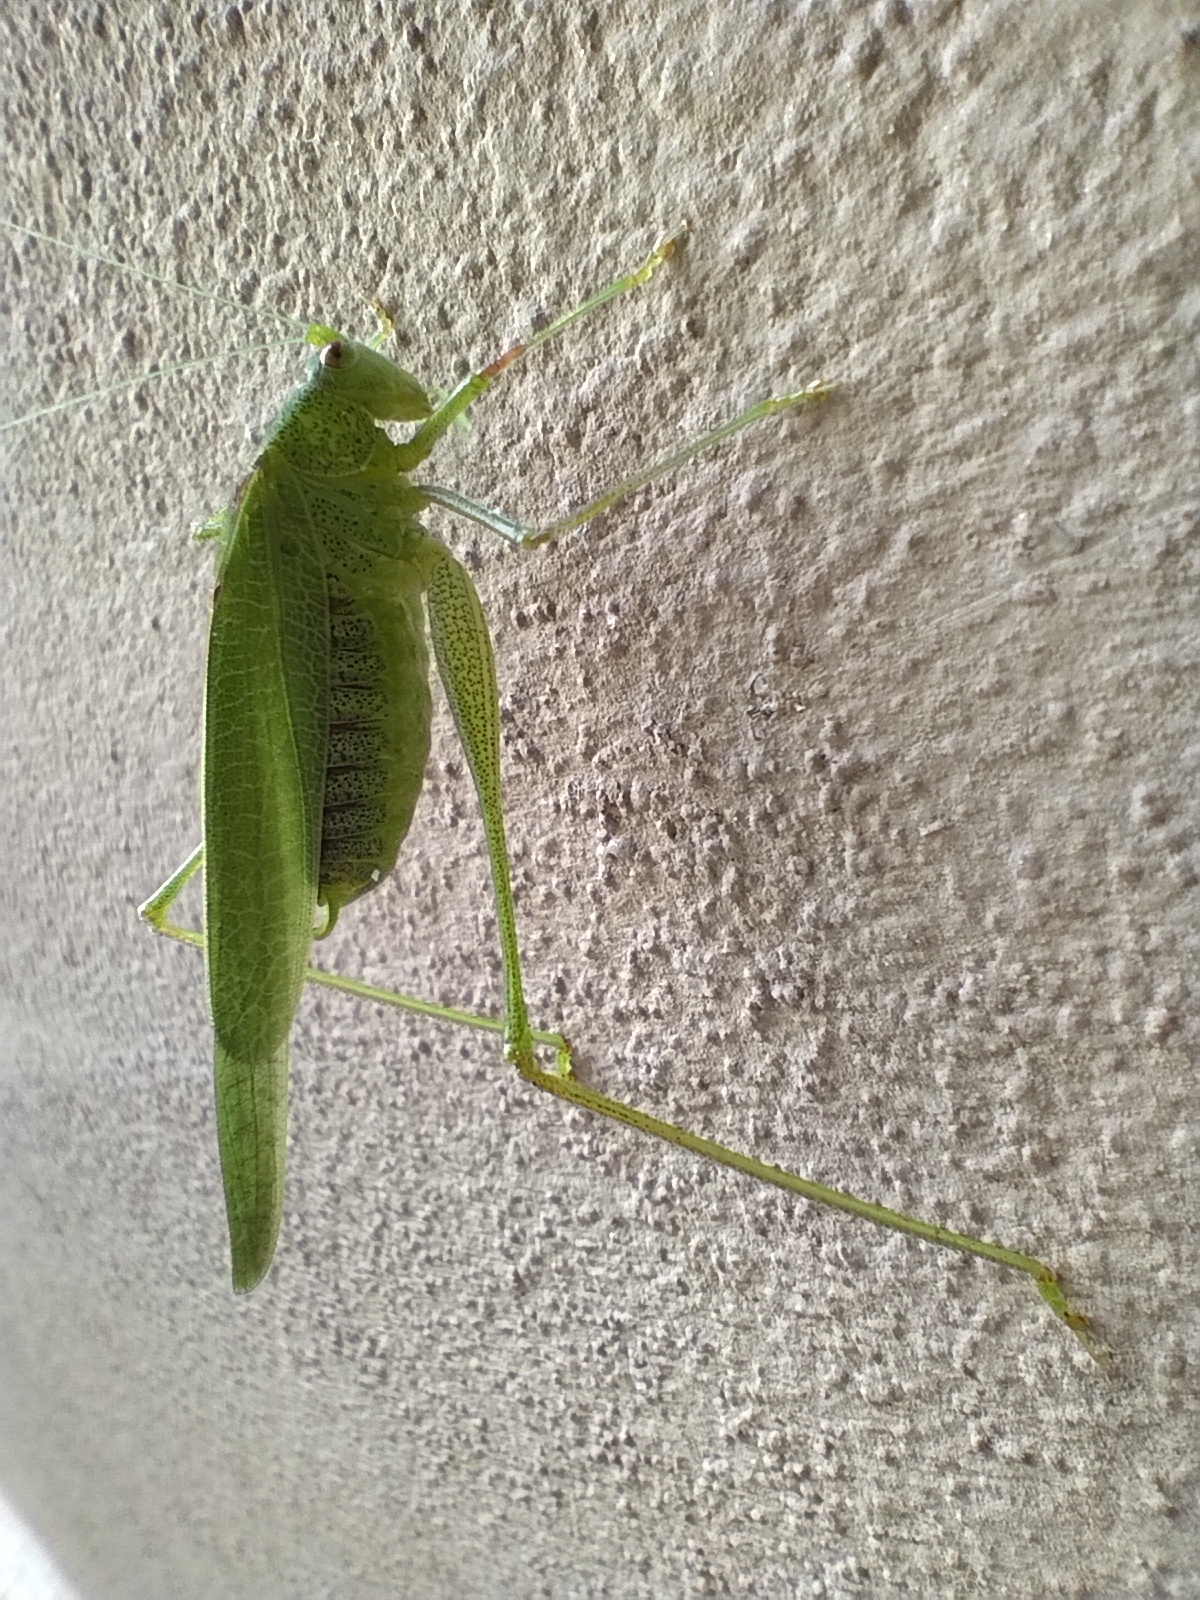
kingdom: Animalia
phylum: Arthropoda
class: Insecta
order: Orthoptera
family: Tettigoniidae
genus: Phaneroptera
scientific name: Phaneroptera nana
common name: Southern sickle bush-cricket
